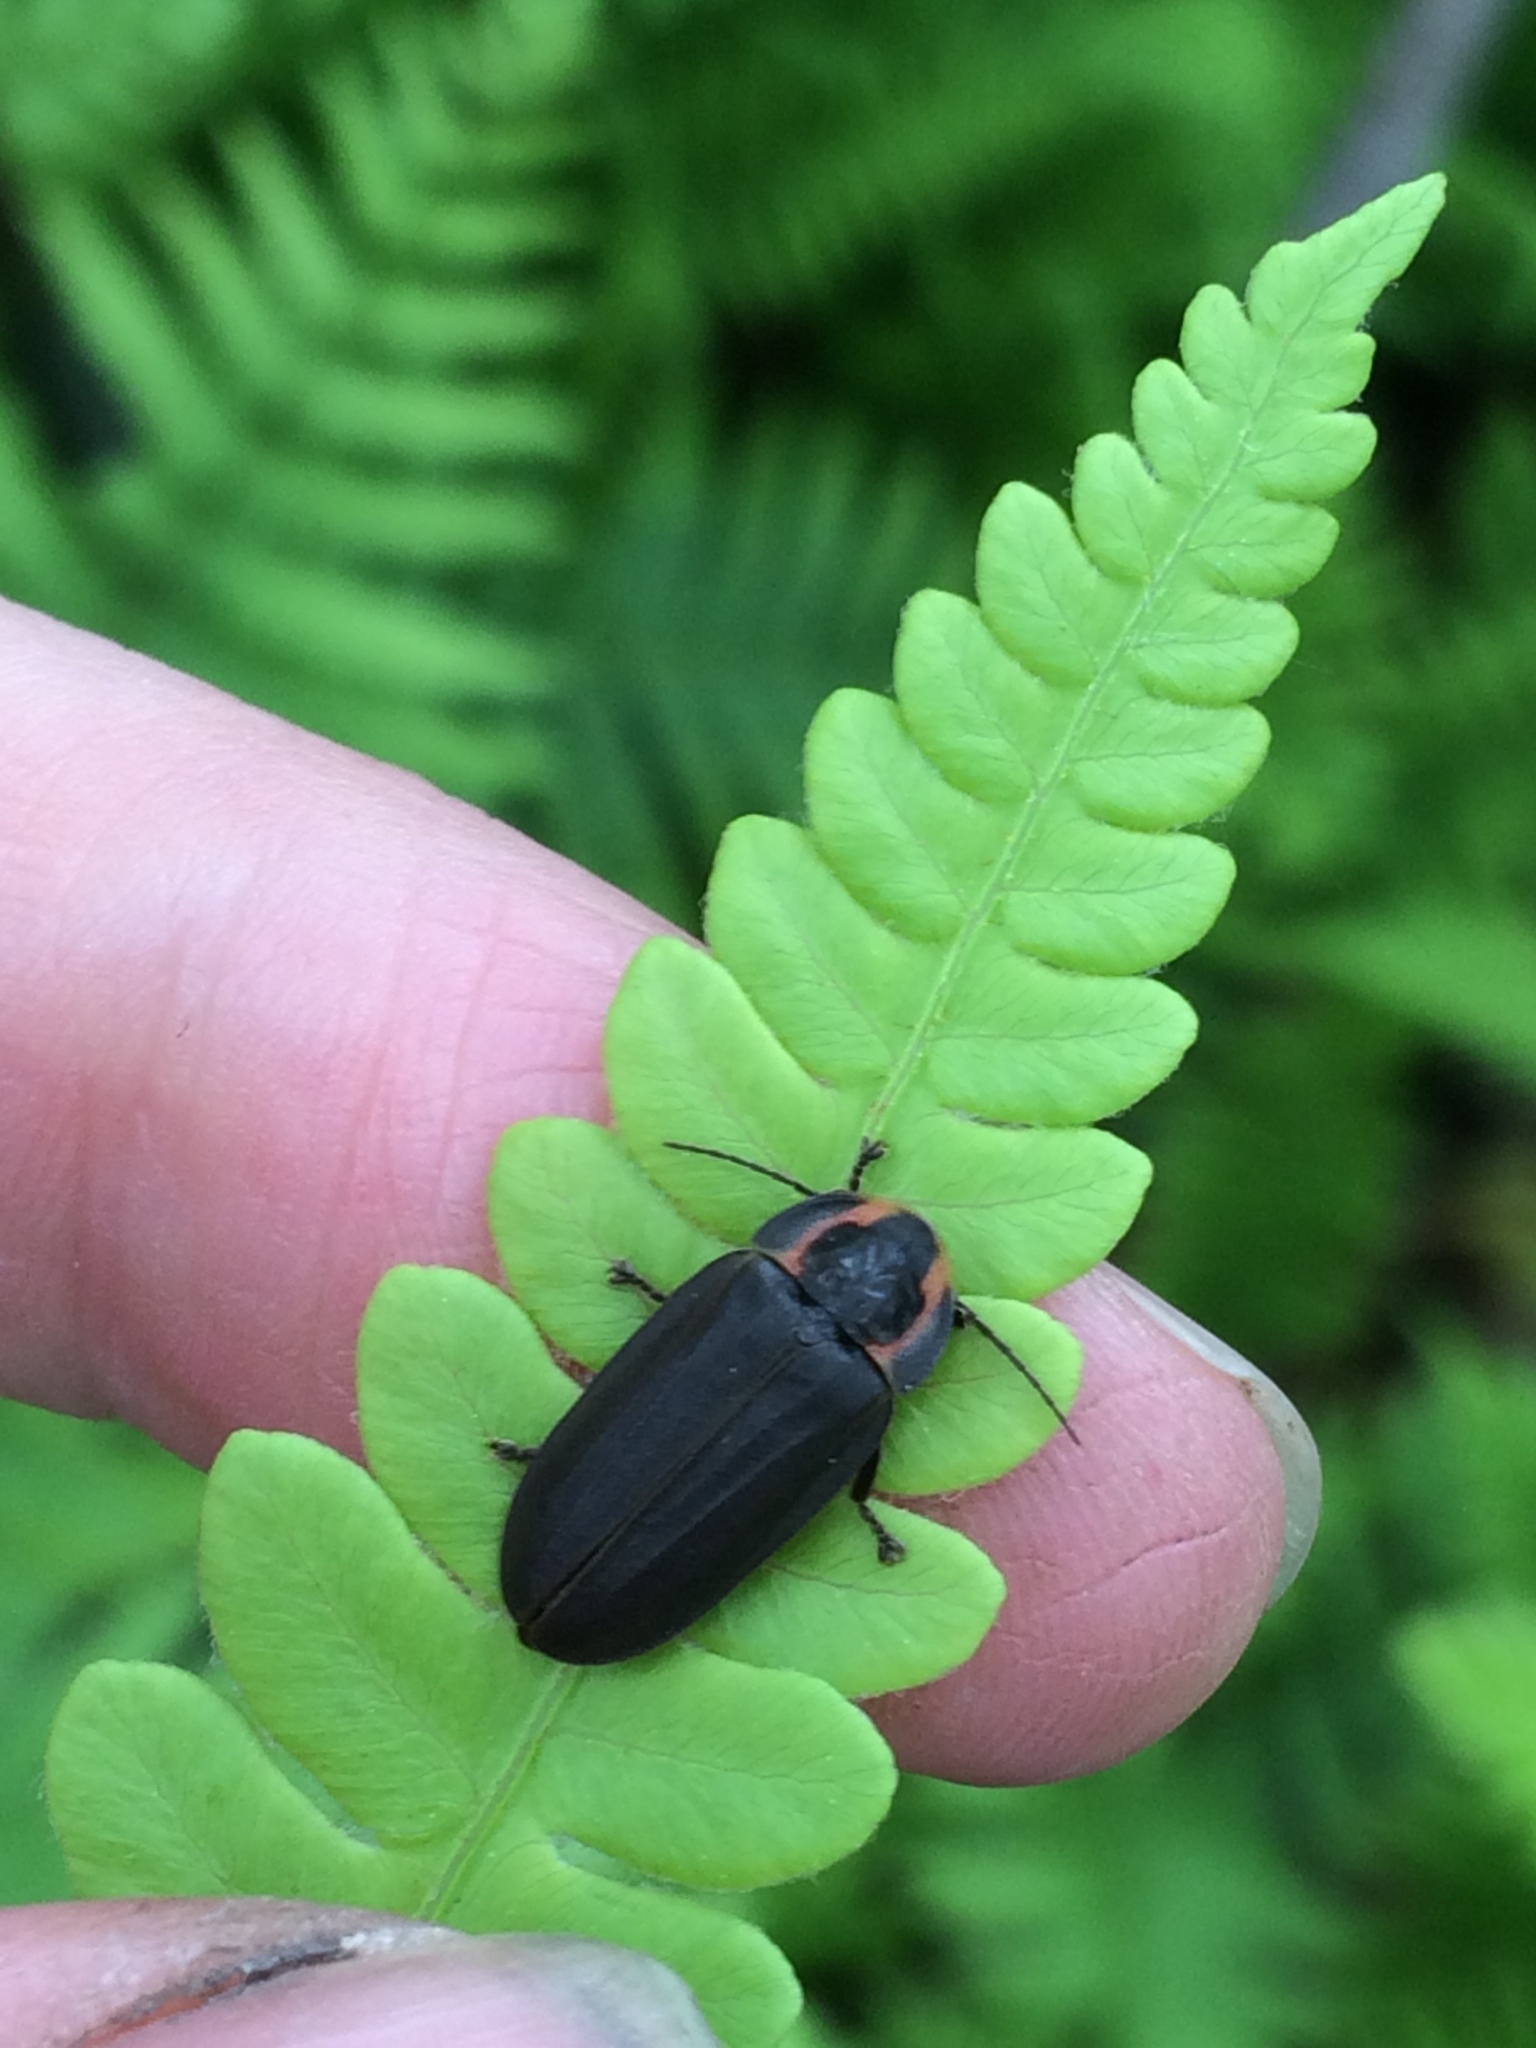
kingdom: Animalia
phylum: Arthropoda
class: Insecta
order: Coleoptera
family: Lampyridae
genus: Photinus
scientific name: Photinus corrusca
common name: Winter firefly
